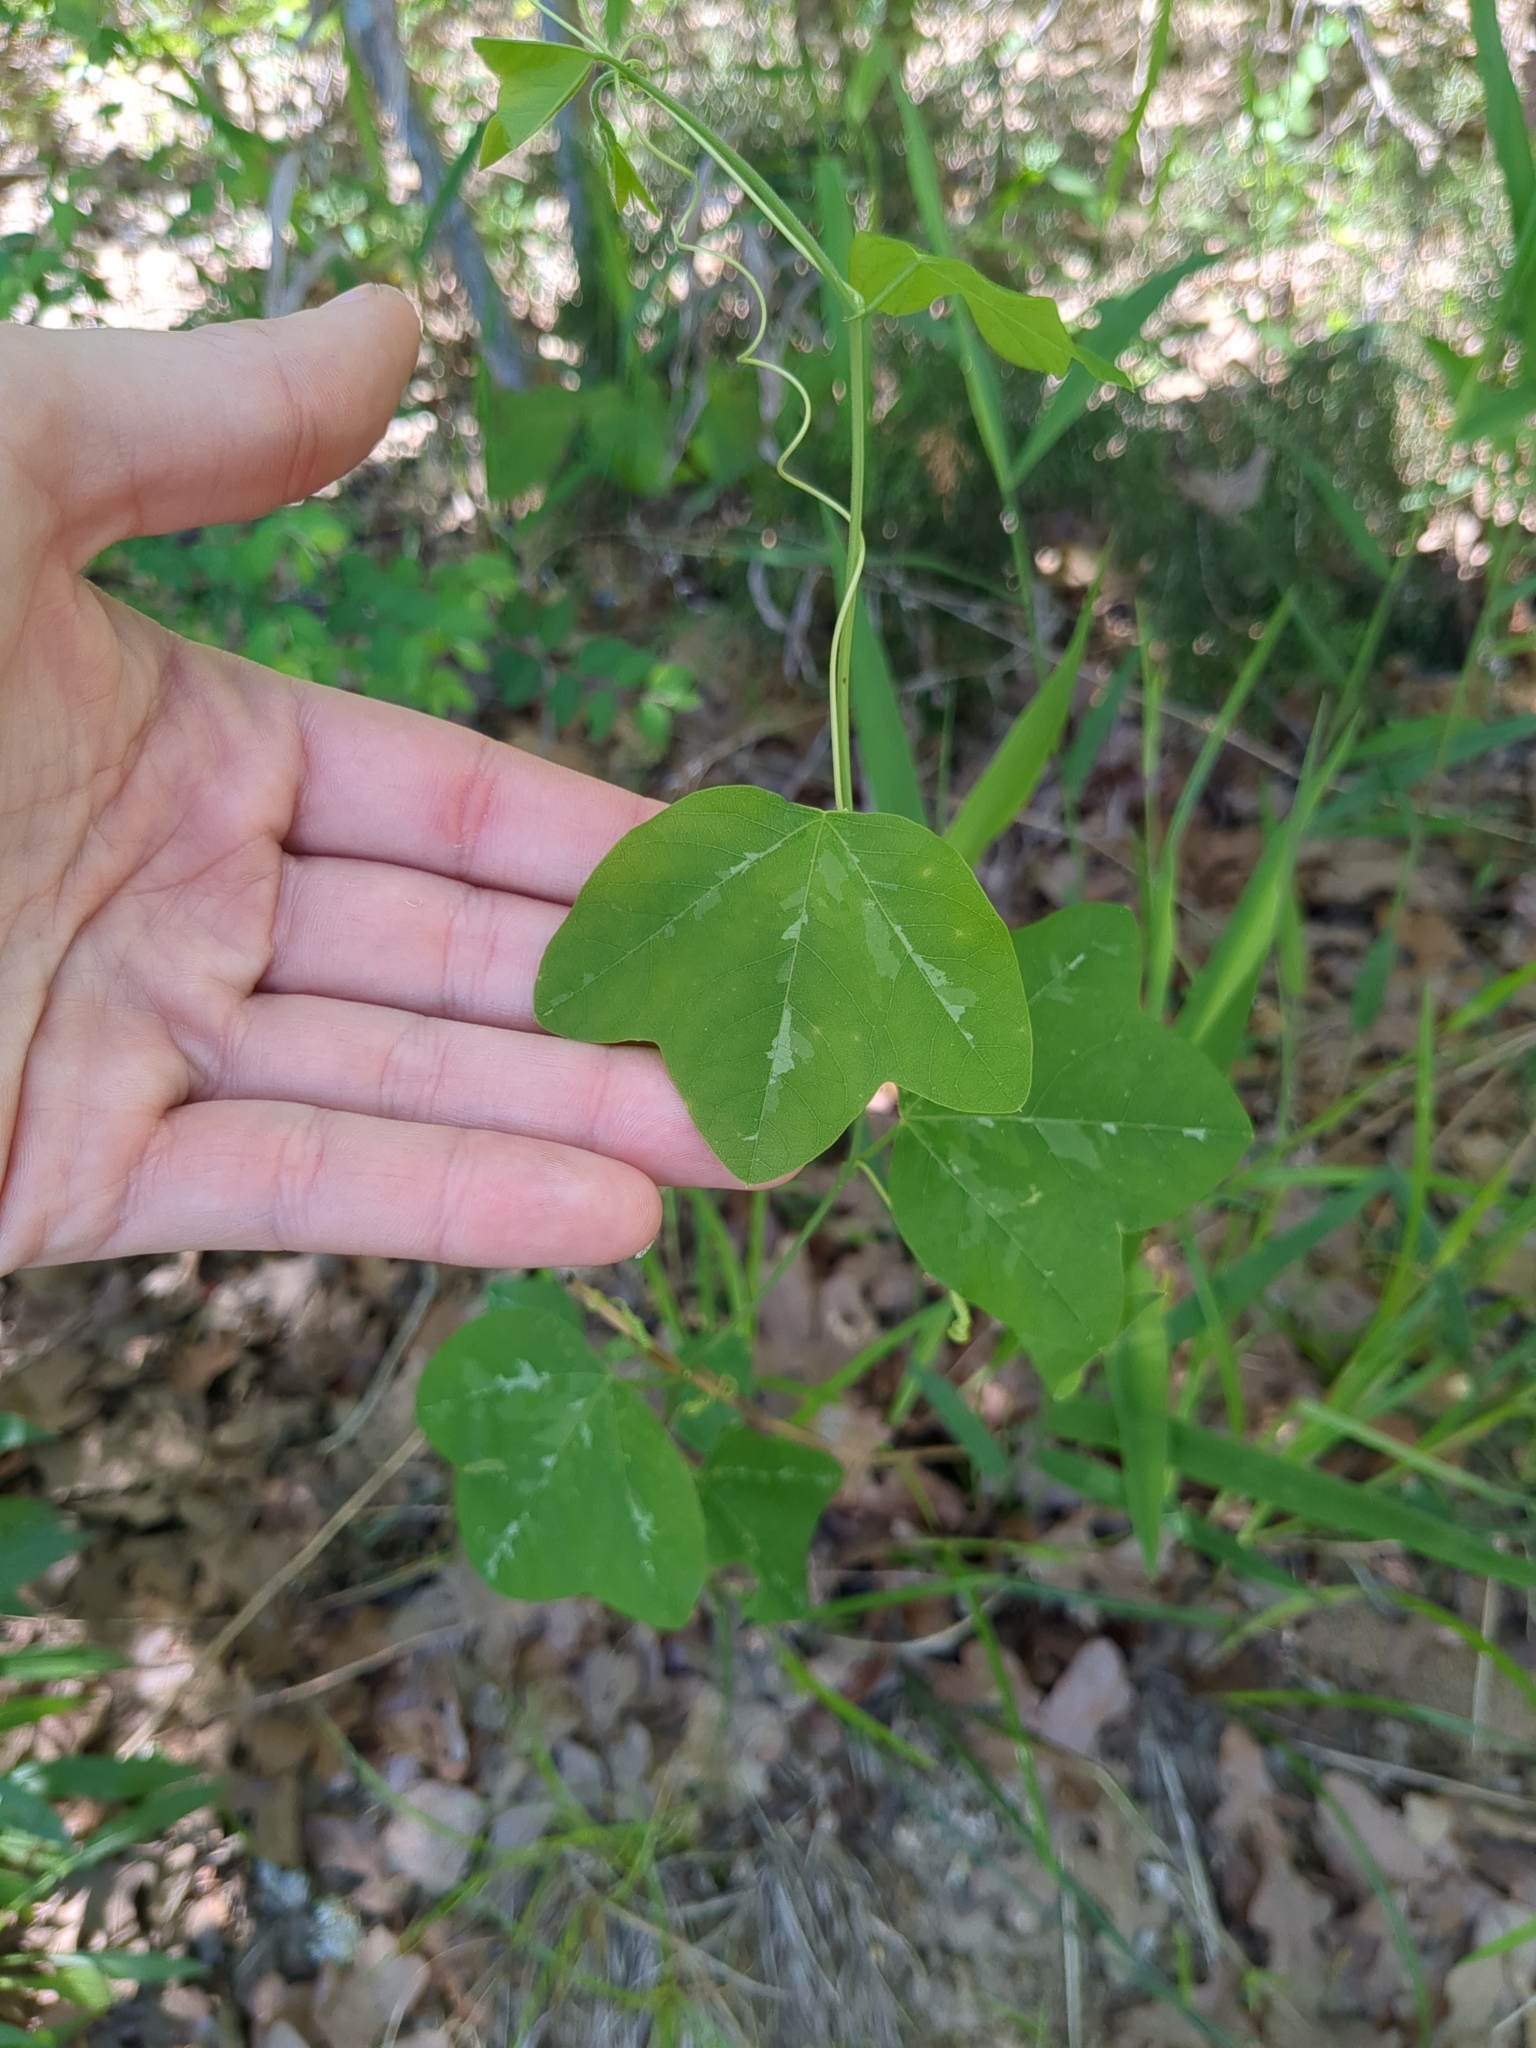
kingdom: Plantae
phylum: Tracheophyta
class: Magnoliopsida
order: Malpighiales
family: Passifloraceae
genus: Passiflora
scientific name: Passiflora lutea
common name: Yellow passionflower
